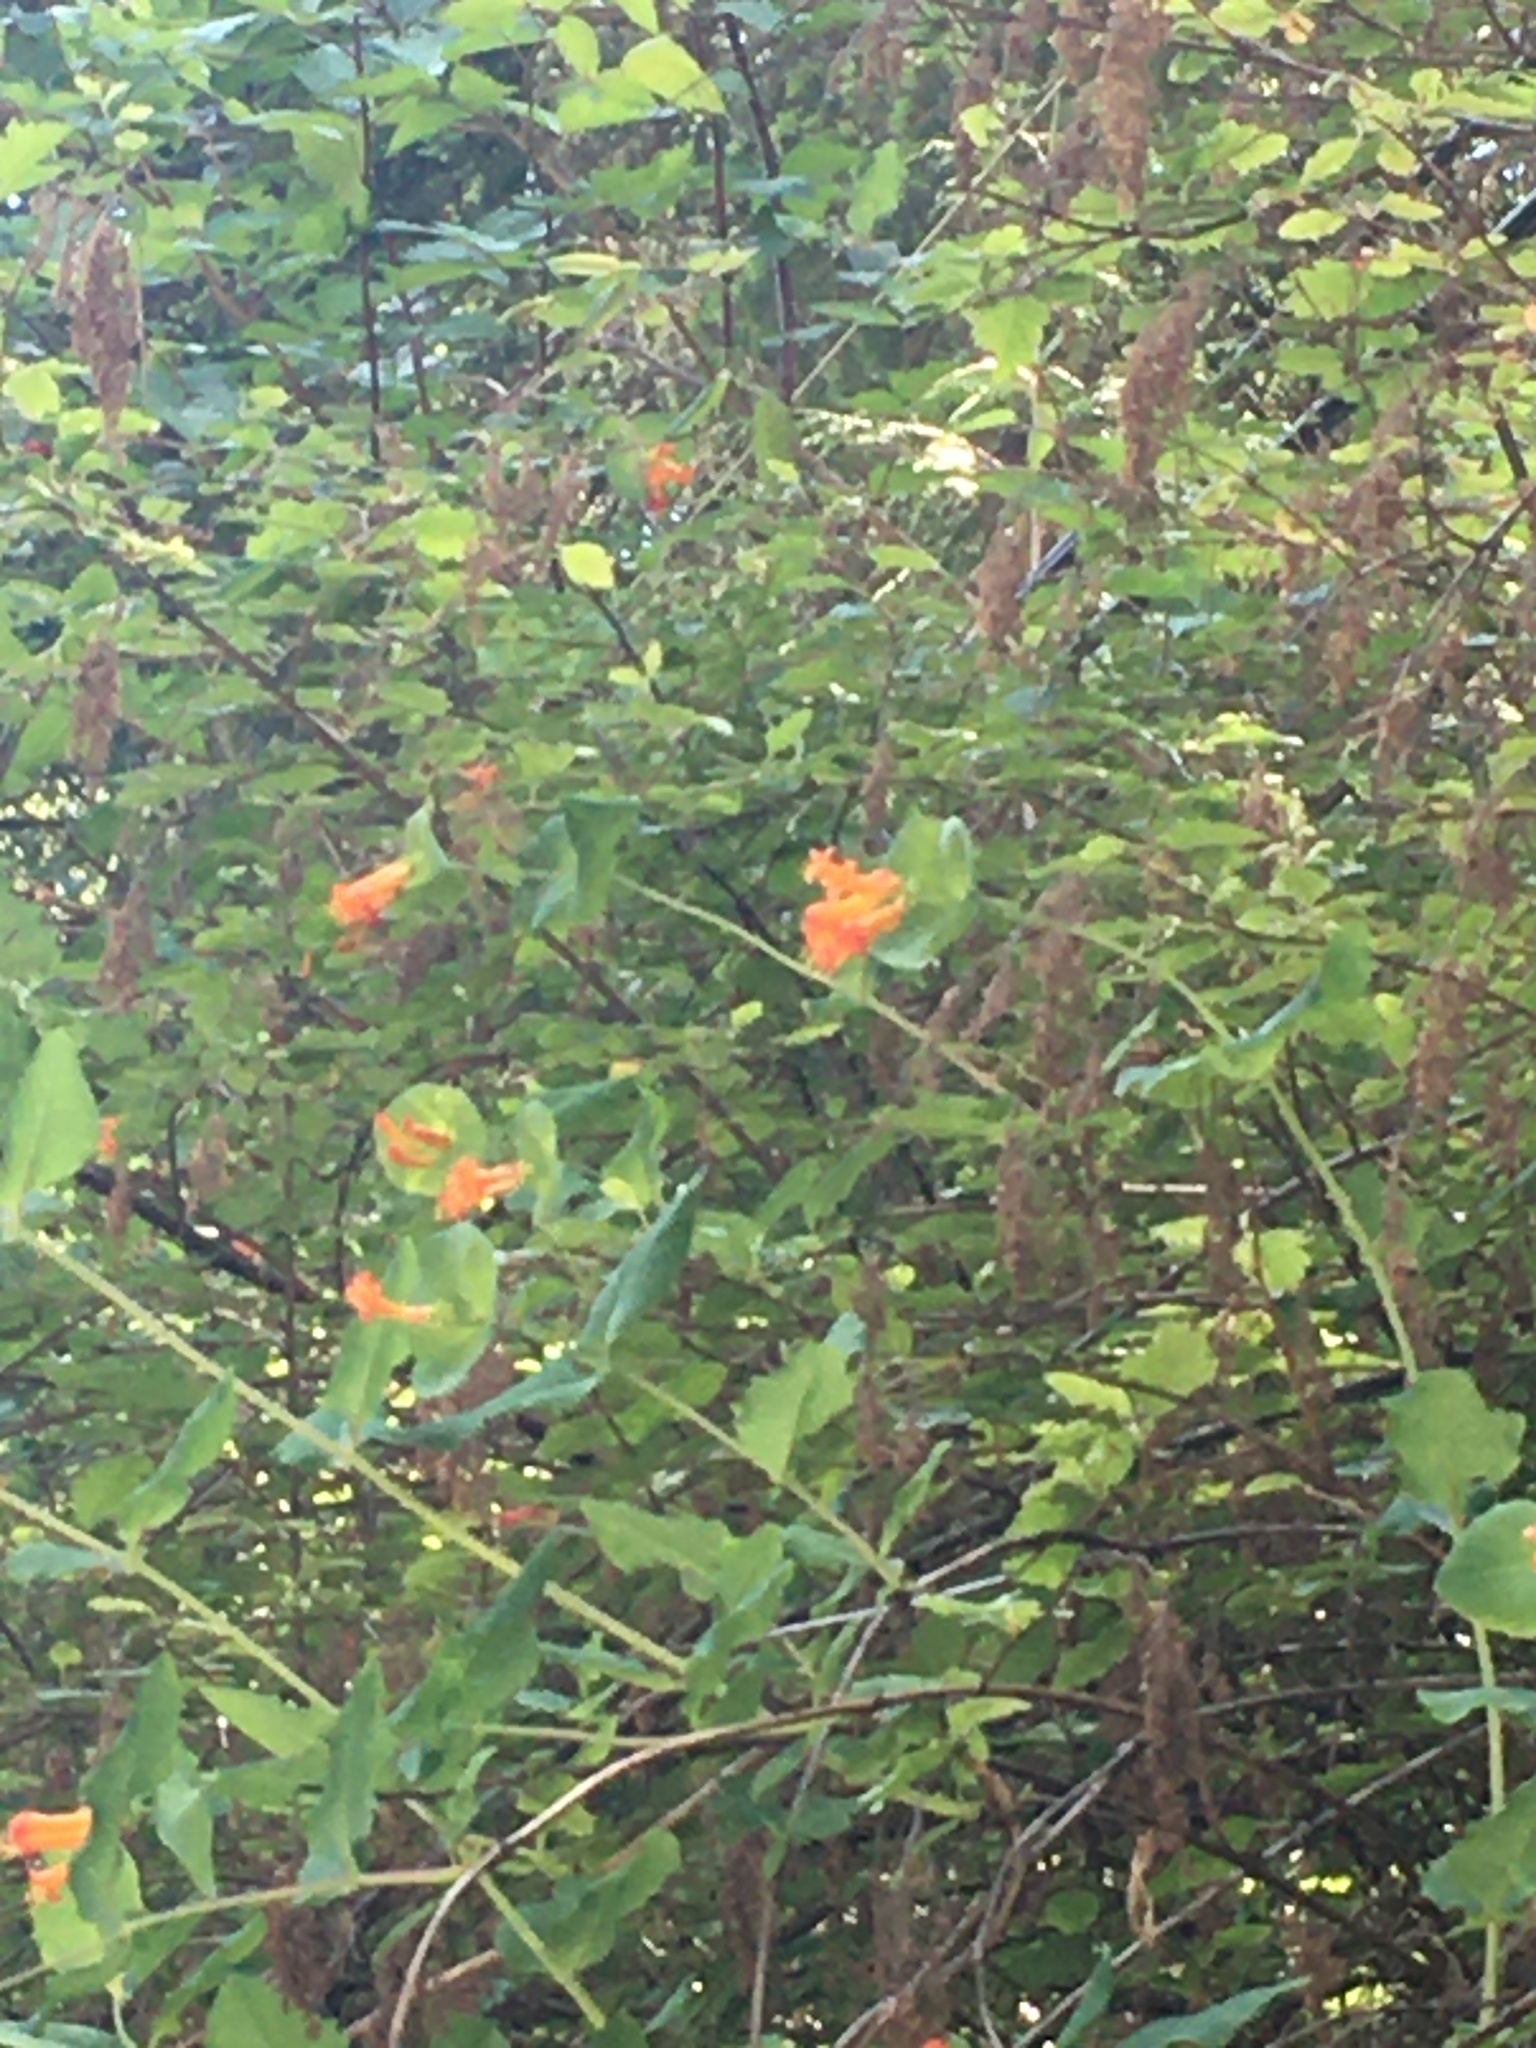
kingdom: Plantae
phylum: Tracheophyta
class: Magnoliopsida
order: Dipsacales
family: Caprifoliaceae
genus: Lonicera
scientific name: Lonicera ciliosa
